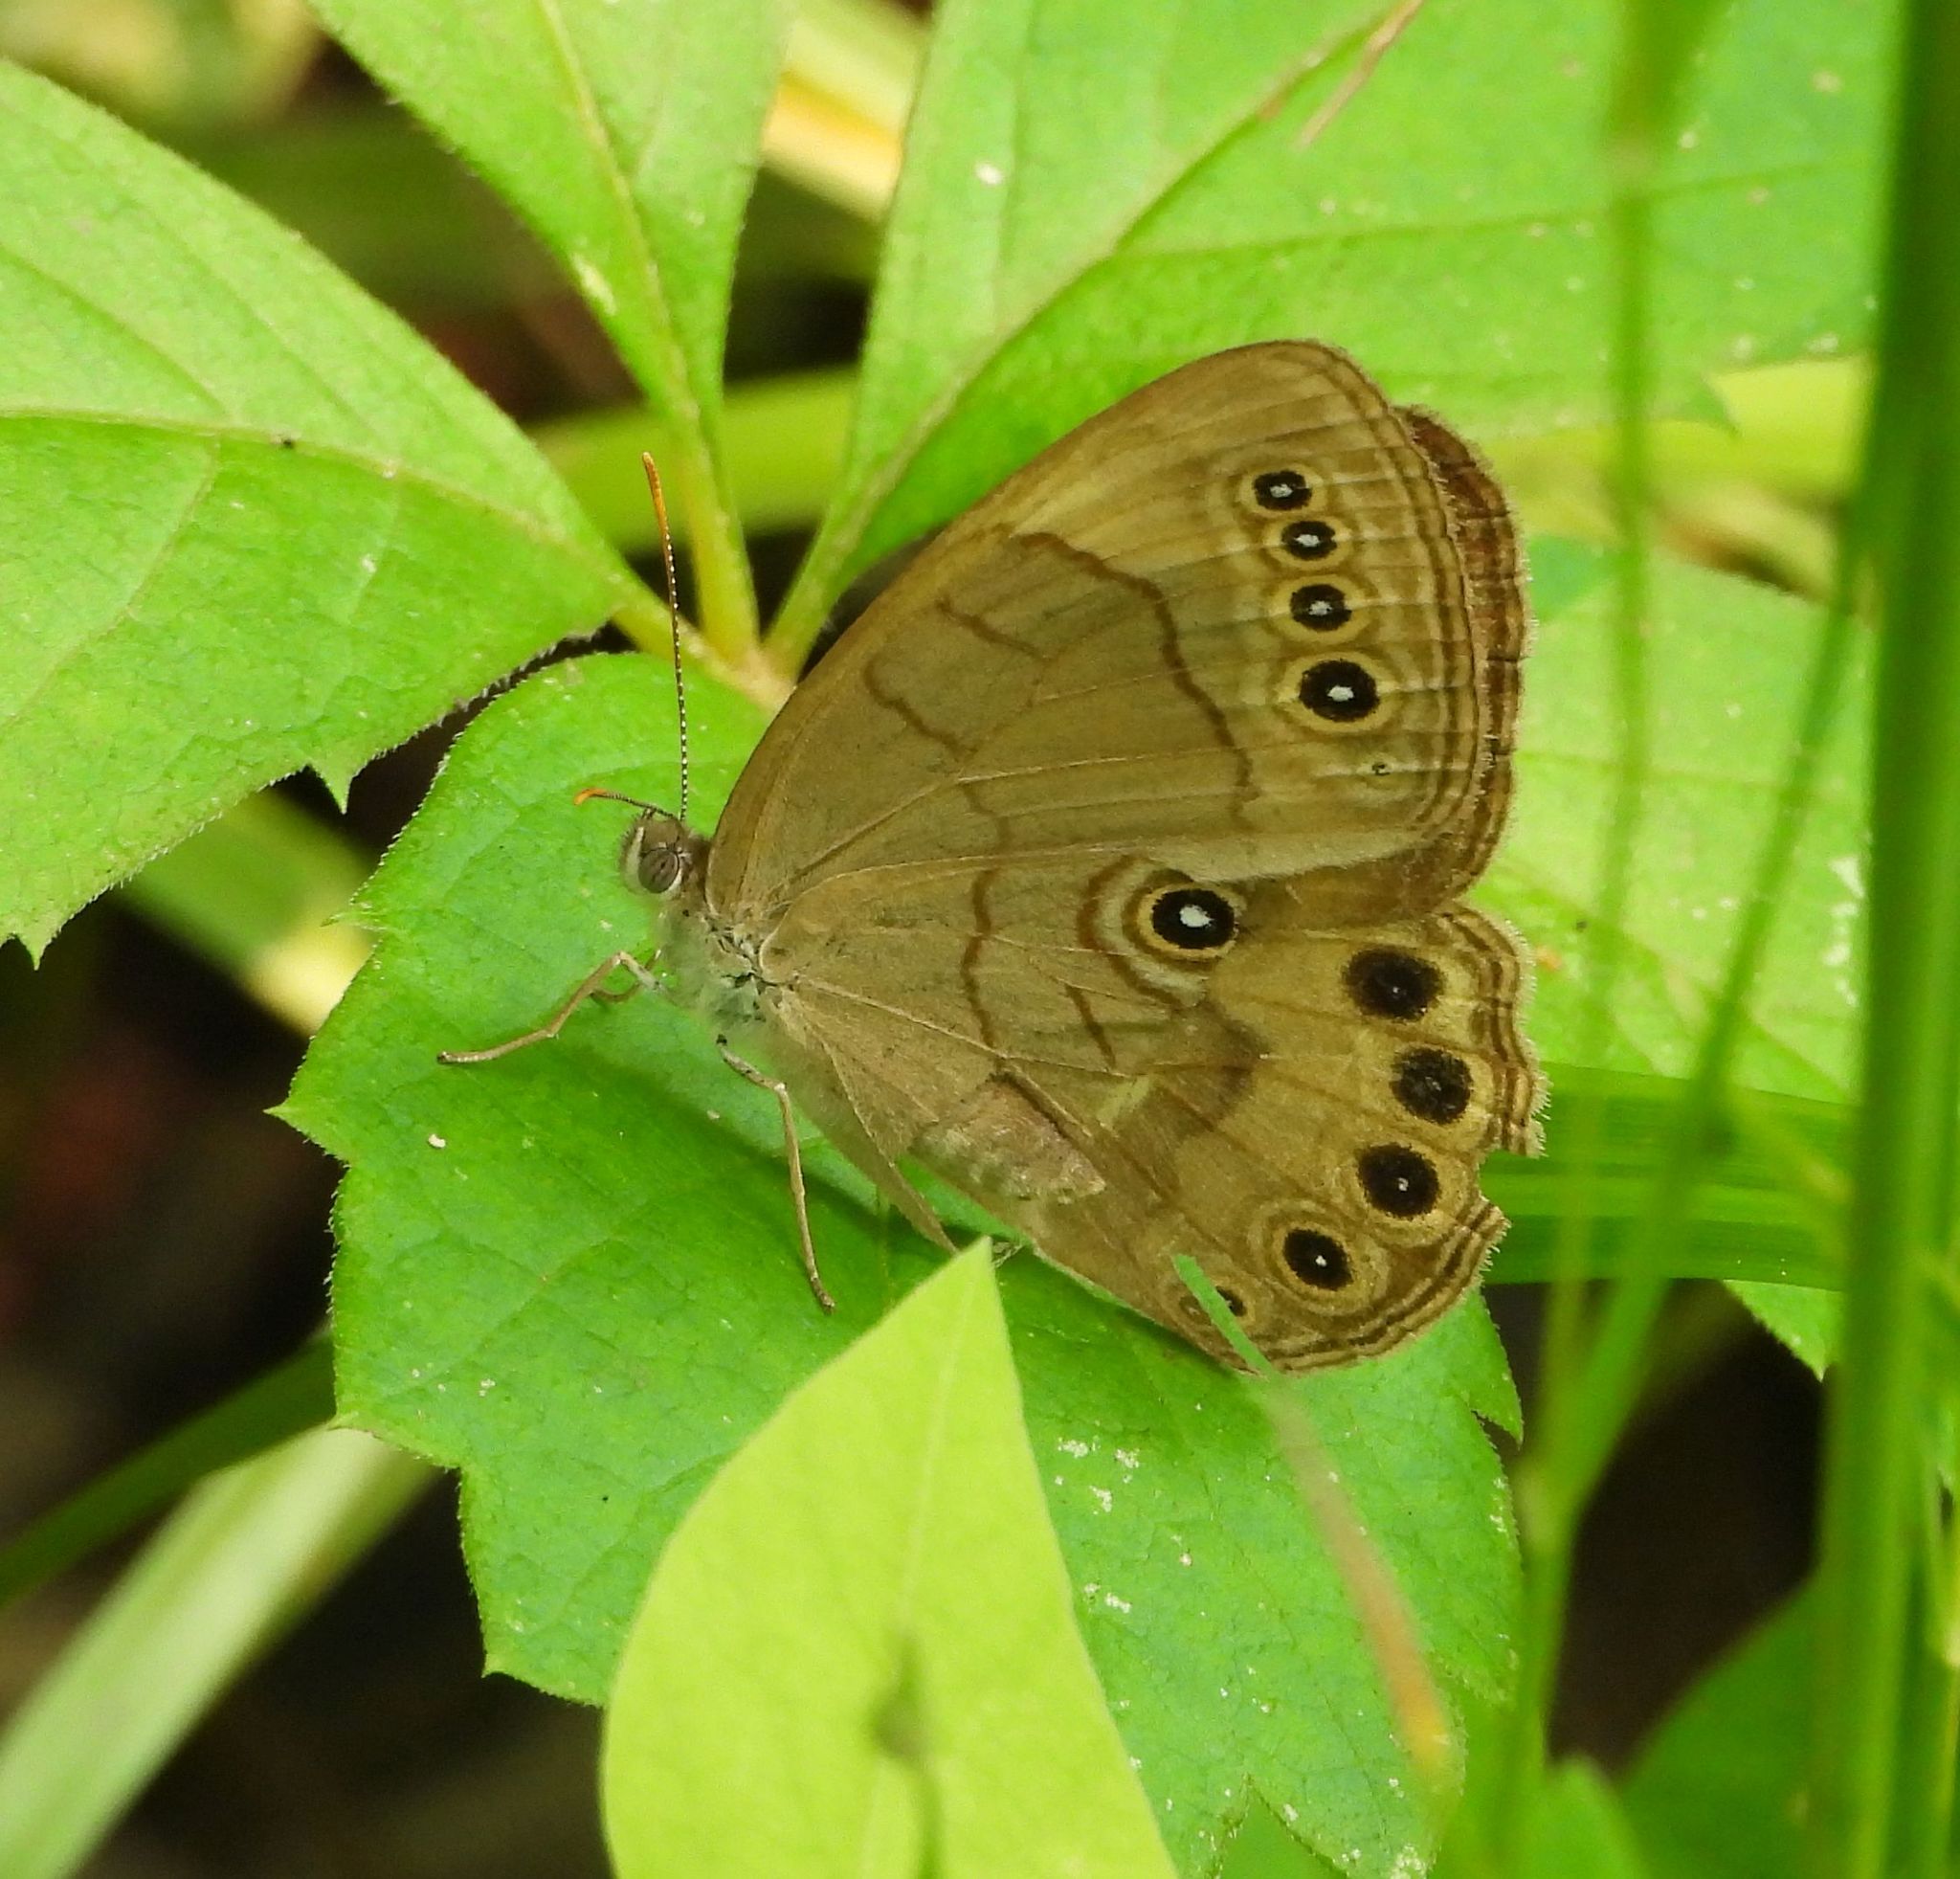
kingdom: Animalia
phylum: Arthropoda
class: Insecta
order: Lepidoptera
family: Nymphalidae
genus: Lethe
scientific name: Lethe eurydice
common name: Eyed brown
